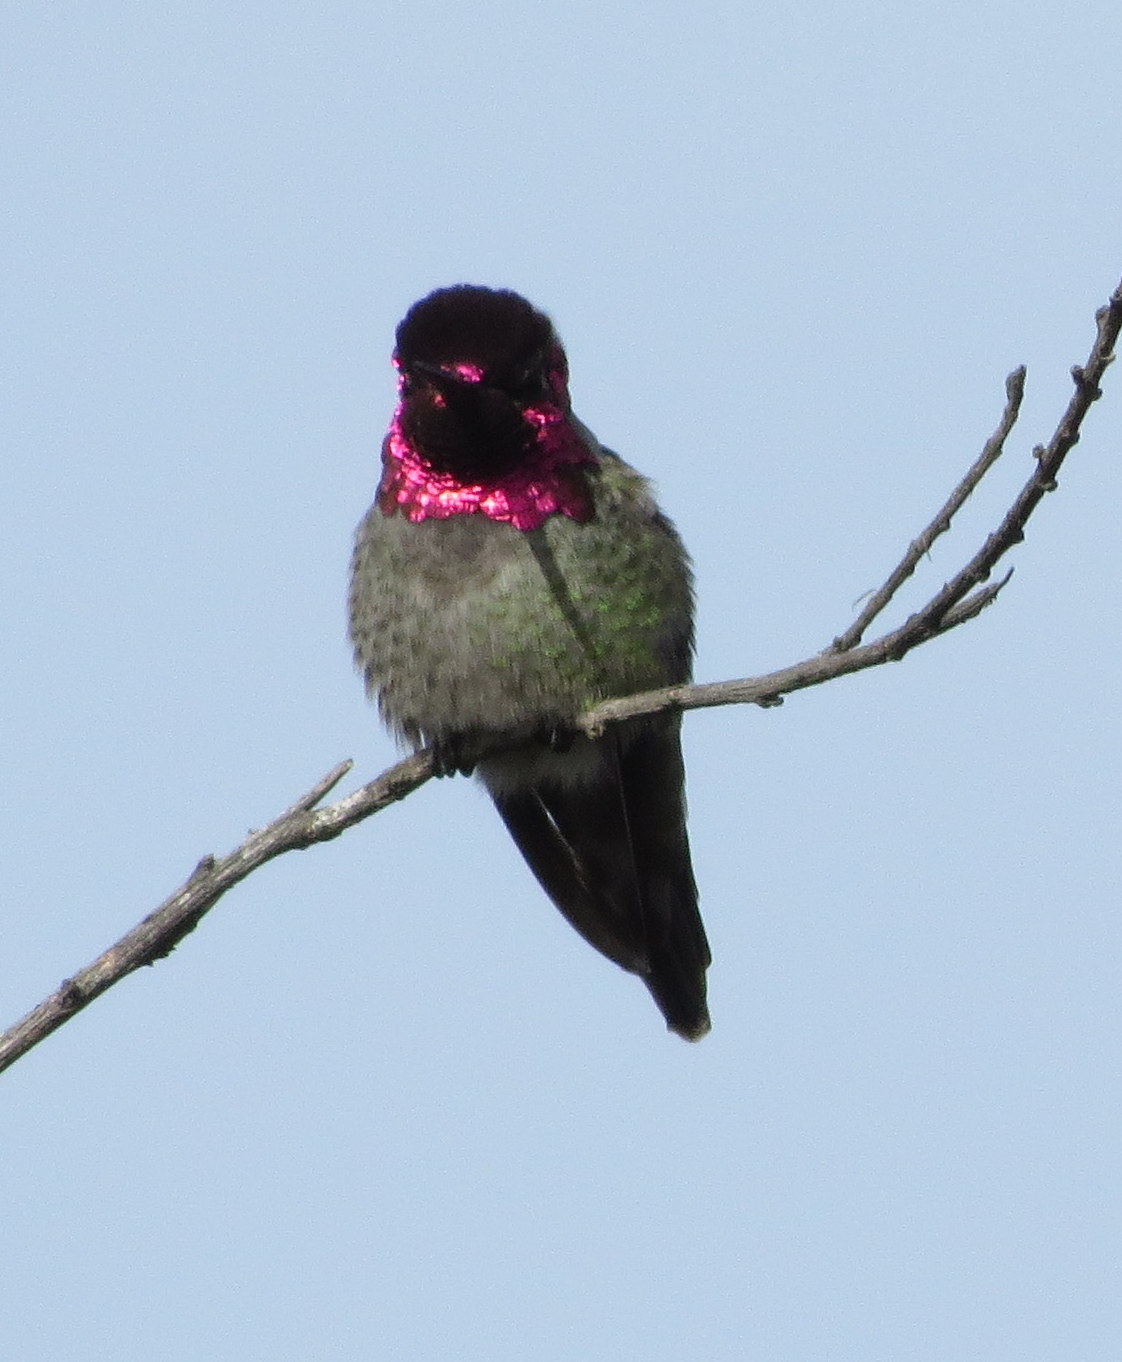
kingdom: Animalia
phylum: Chordata
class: Aves
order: Apodiformes
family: Trochilidae
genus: Calypte
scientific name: Calypte anna
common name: Anna's hummingbird
